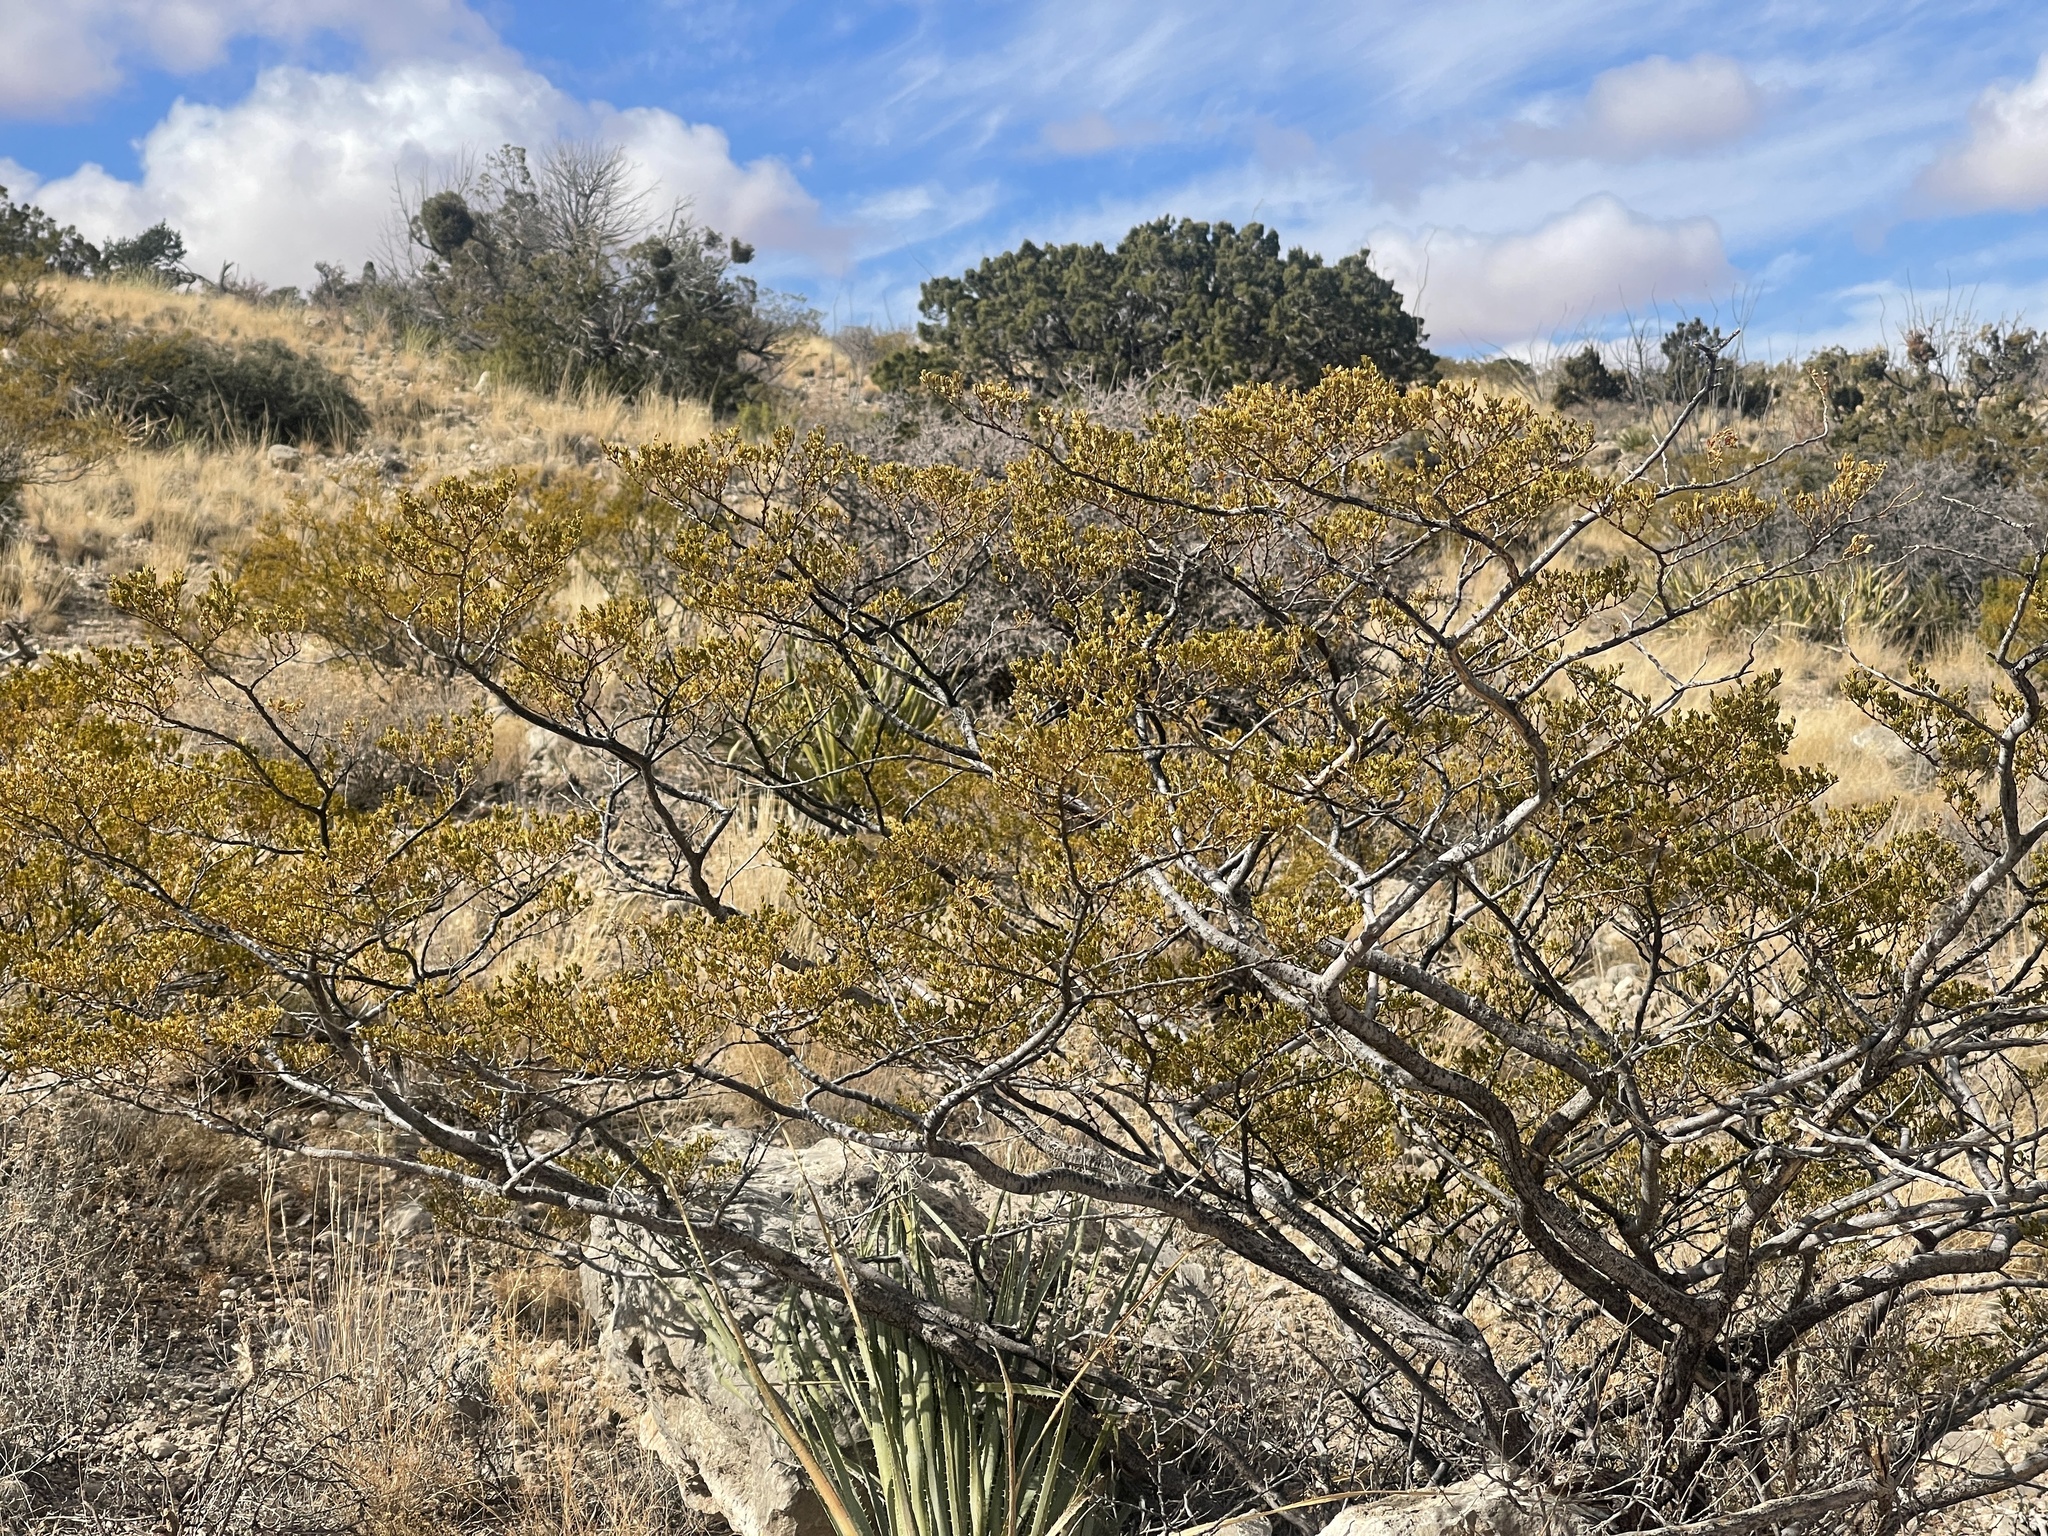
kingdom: Plantae
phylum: Tracheophyta
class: Magnoliopsida
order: Zygophyllales
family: Zygophyllaceae
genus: Larrea
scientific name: Larrea tridentata
